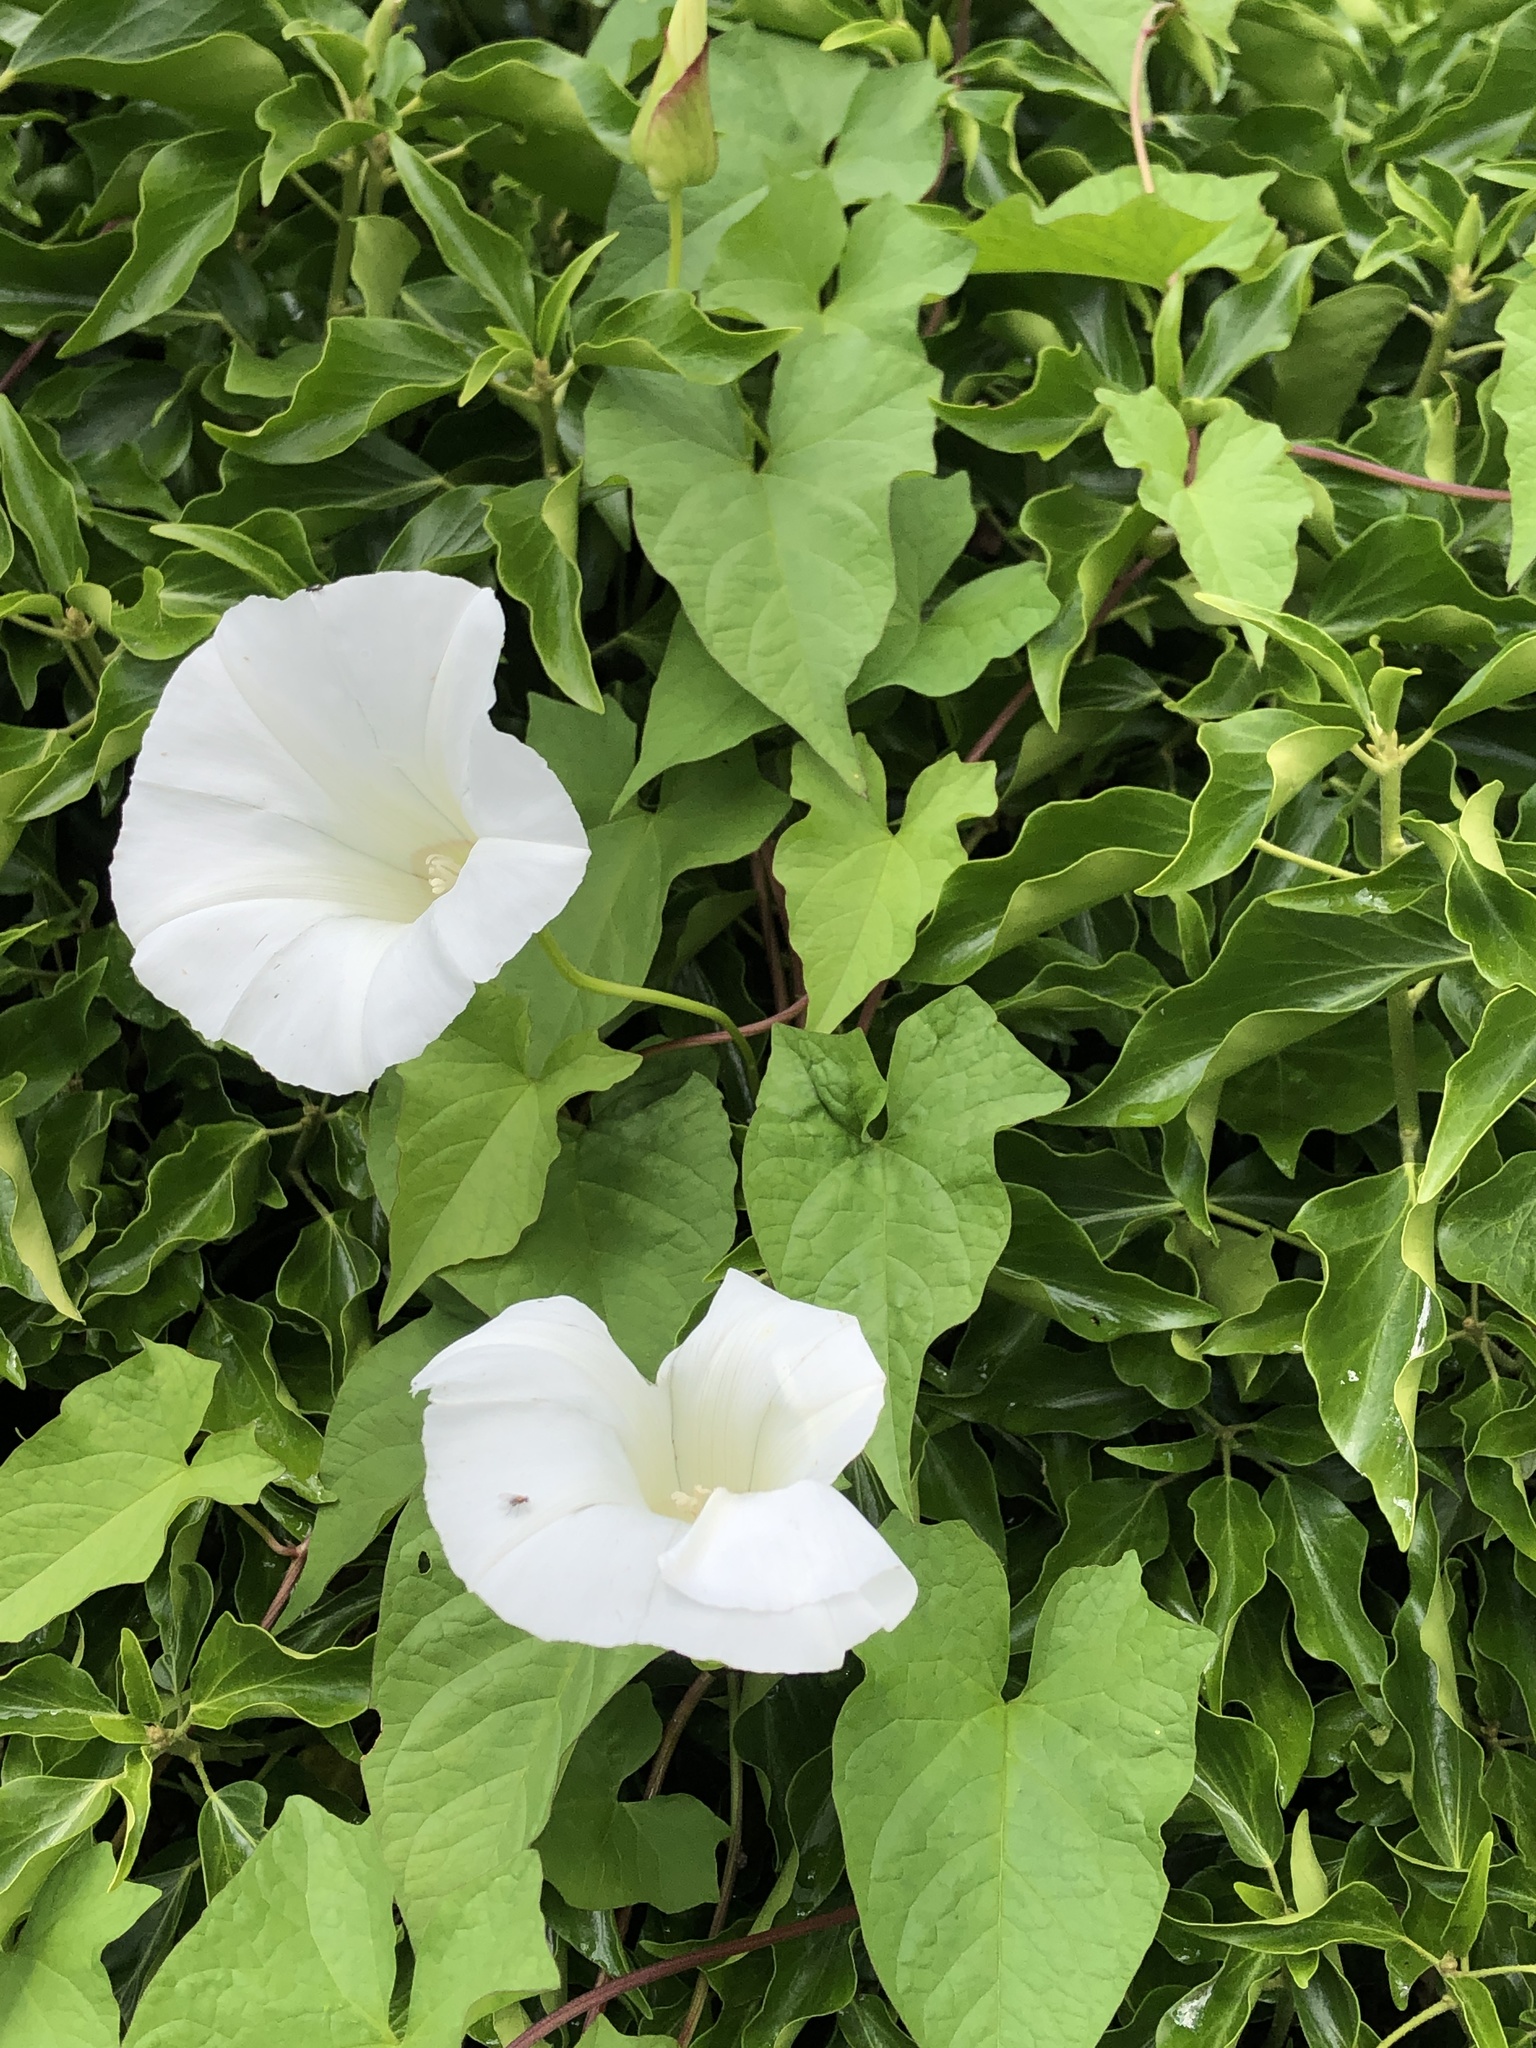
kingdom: Plantae
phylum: Tracheophyta
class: Magnoliopsida
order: Solanales
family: Convolvulaceae
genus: Calystegia
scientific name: Calystegia silvatica
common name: Large bindweed
